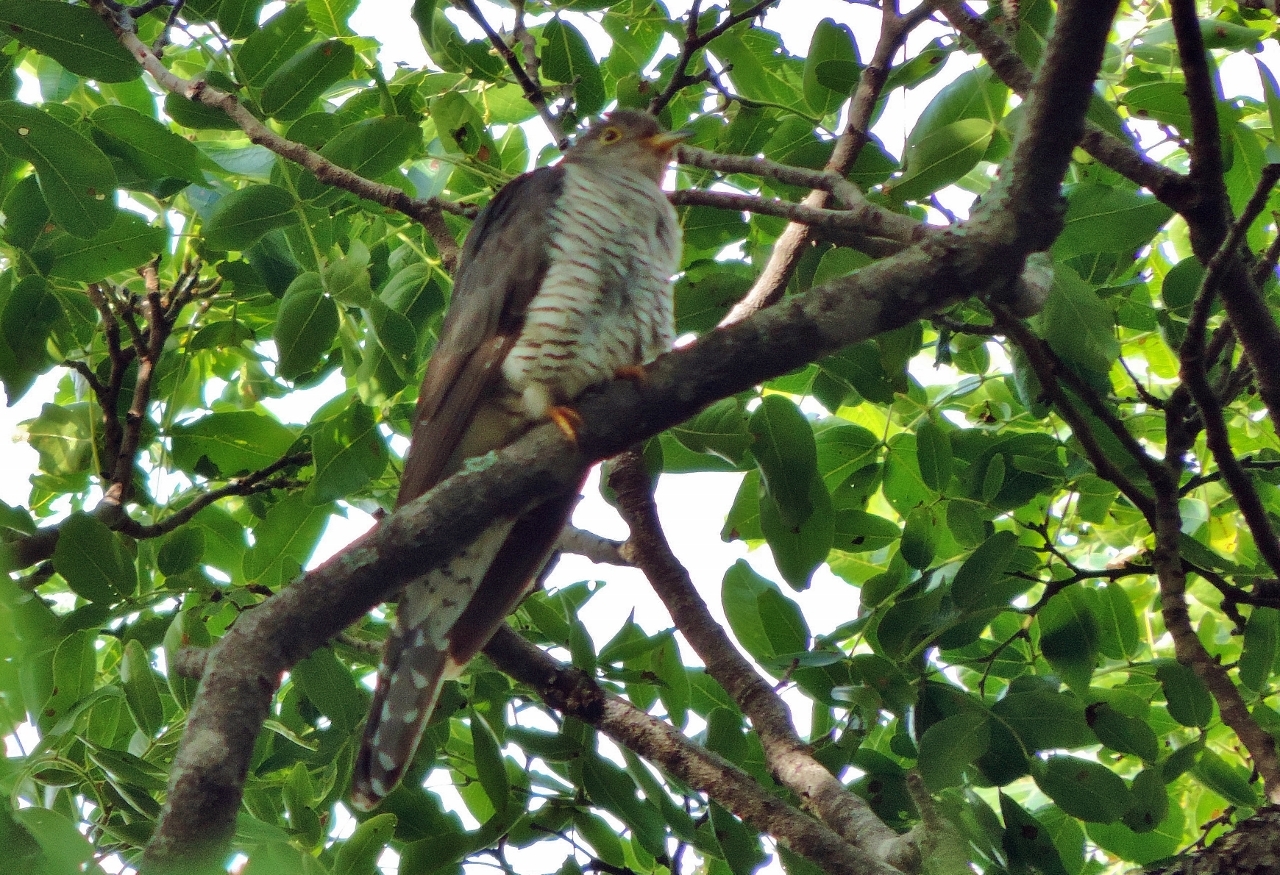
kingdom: Animalia
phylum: Chordata
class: Aves
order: Cuculiformes
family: Cuculidae
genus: Cuculus
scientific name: Cuculus rochii
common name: Madagascar cuckoo
